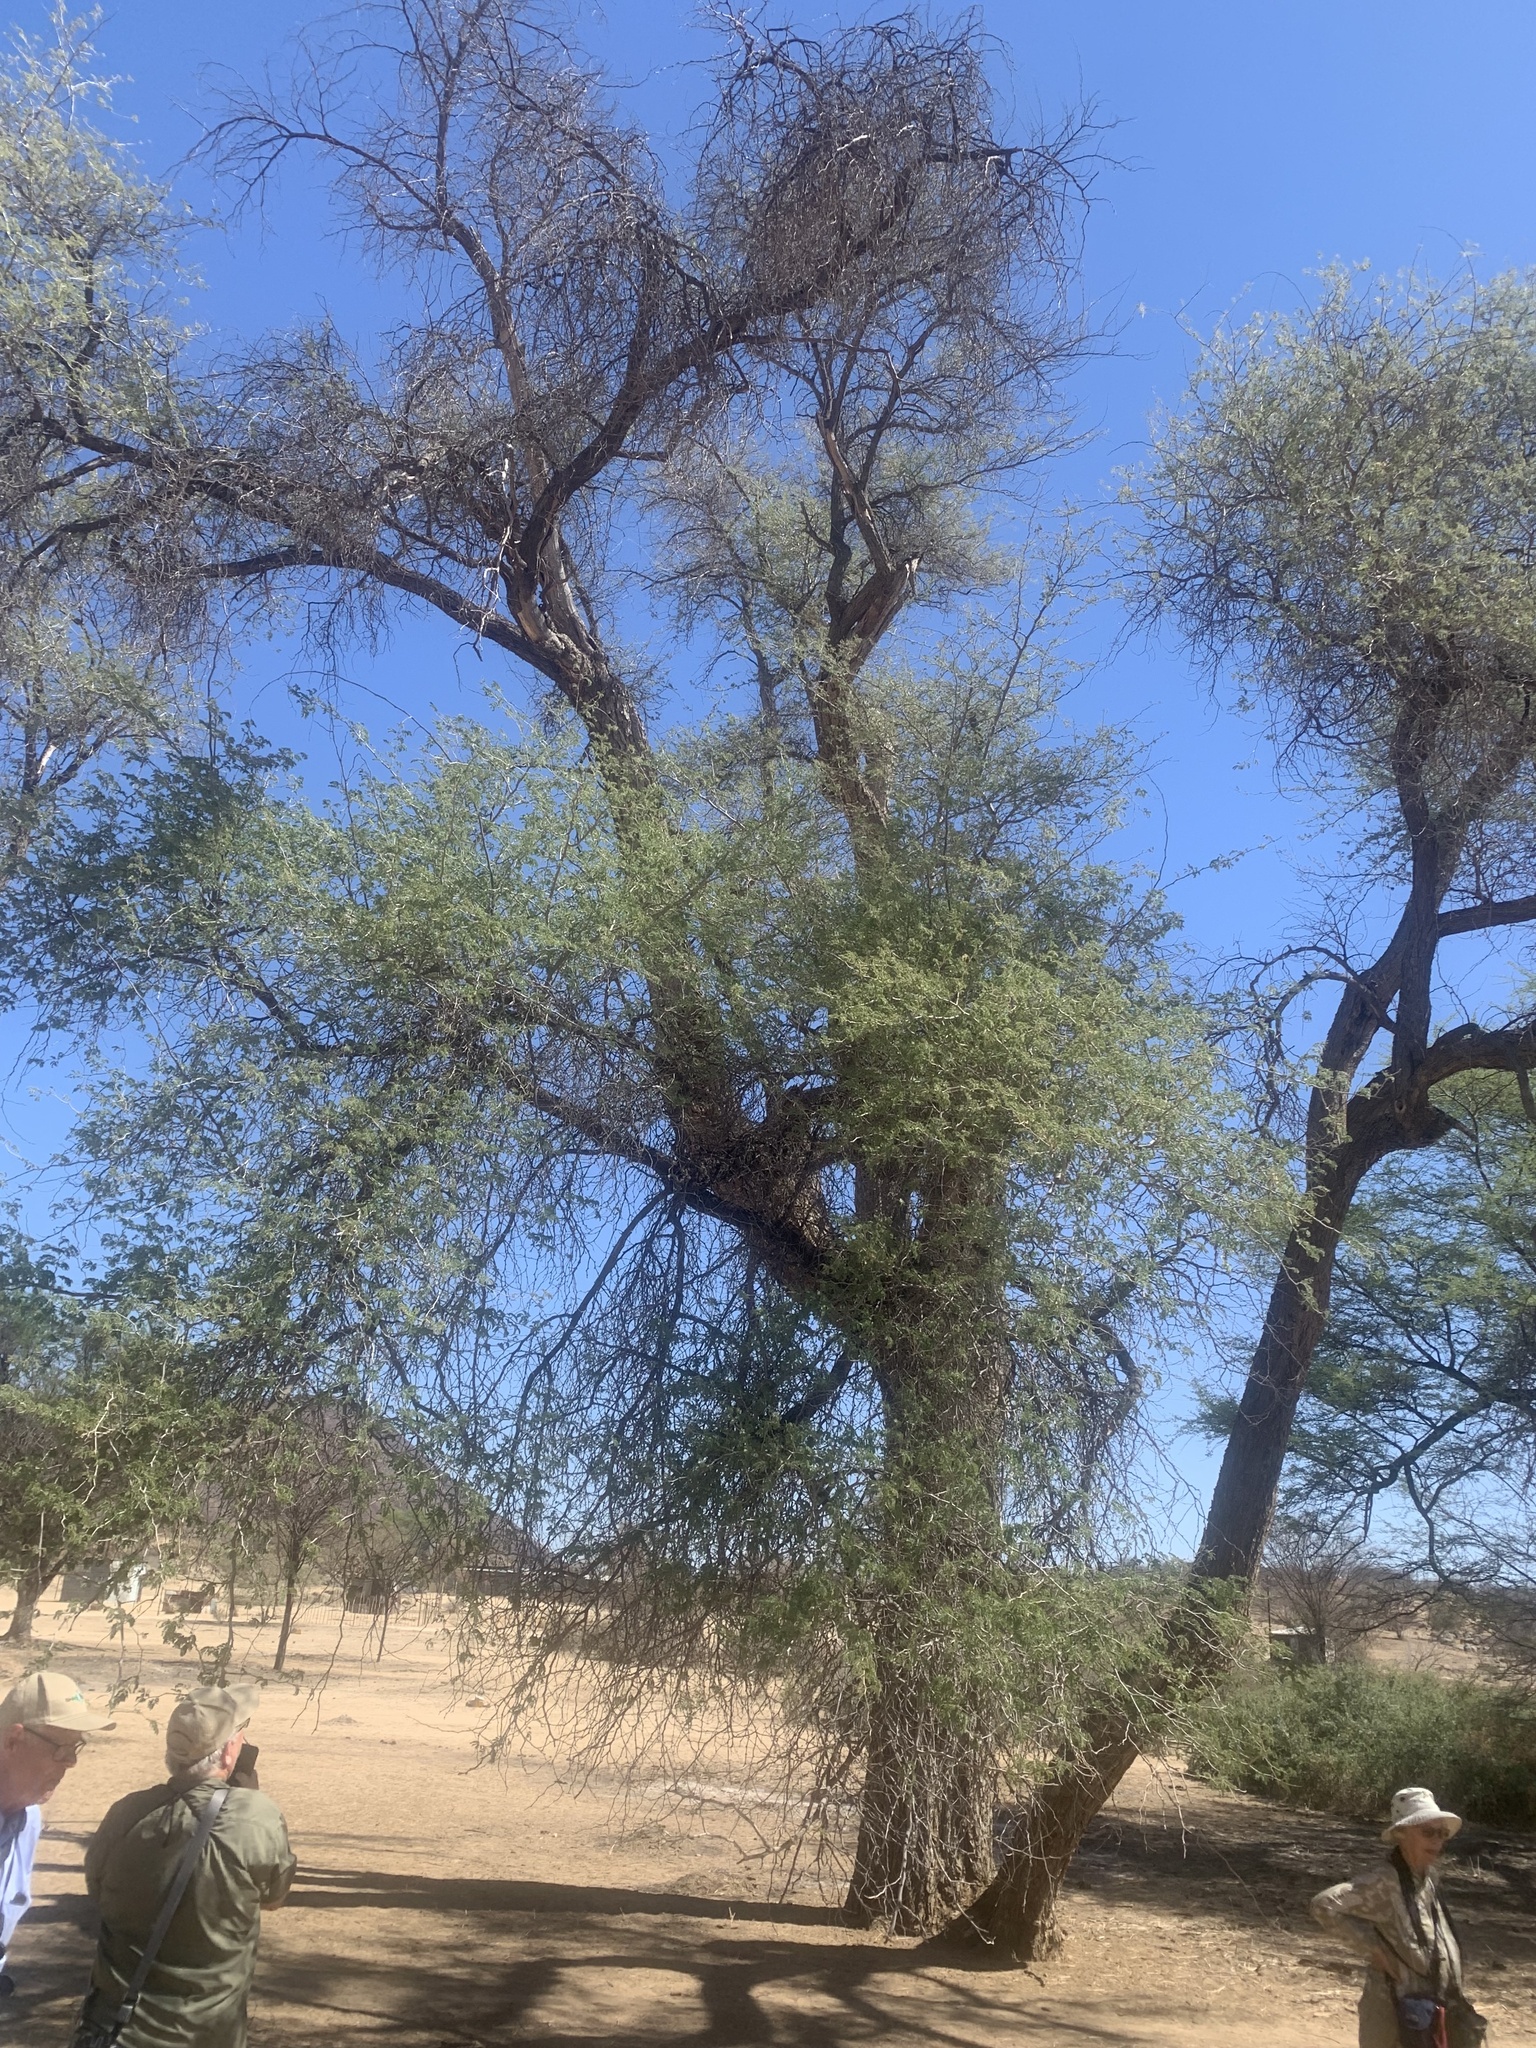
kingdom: Plantae
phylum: Tracheophyta
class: Magnoliopsida
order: Fabales
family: Fabaceae
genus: Faidherbia
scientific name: Faidherbia albida
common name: Anatree
